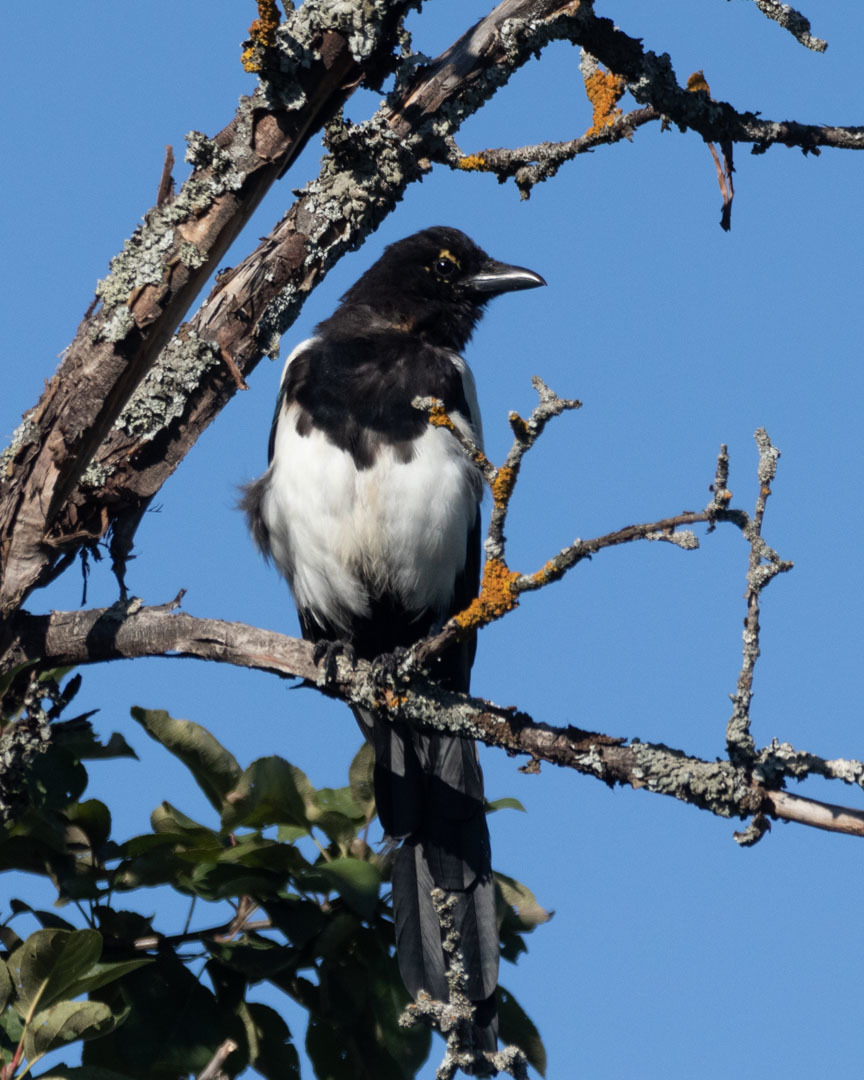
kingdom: Animalia
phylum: Chordata
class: Aves
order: Passeriformes
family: Corvidae
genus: Pica
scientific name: Pica pica
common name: Eurasian magpie
